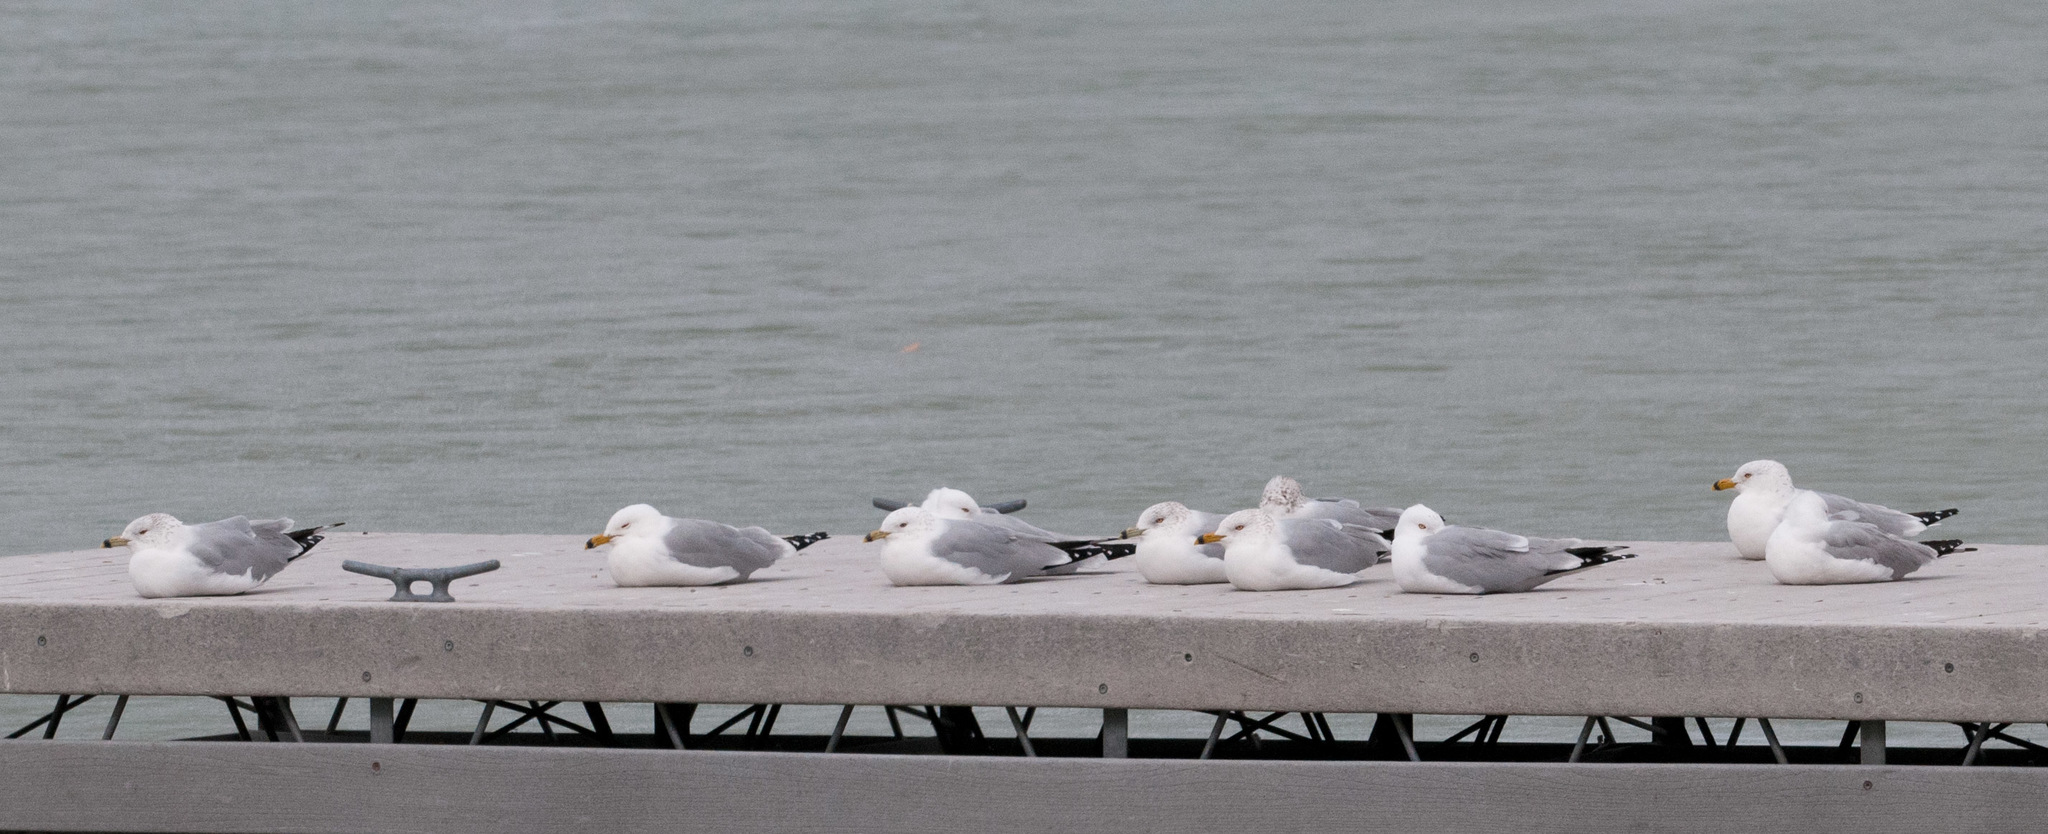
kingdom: Animalia
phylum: Chordata
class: Aves
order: Charadriiformes
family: Laridae
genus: Larus
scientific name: Larus delawarensis
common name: Ring-billed gull
